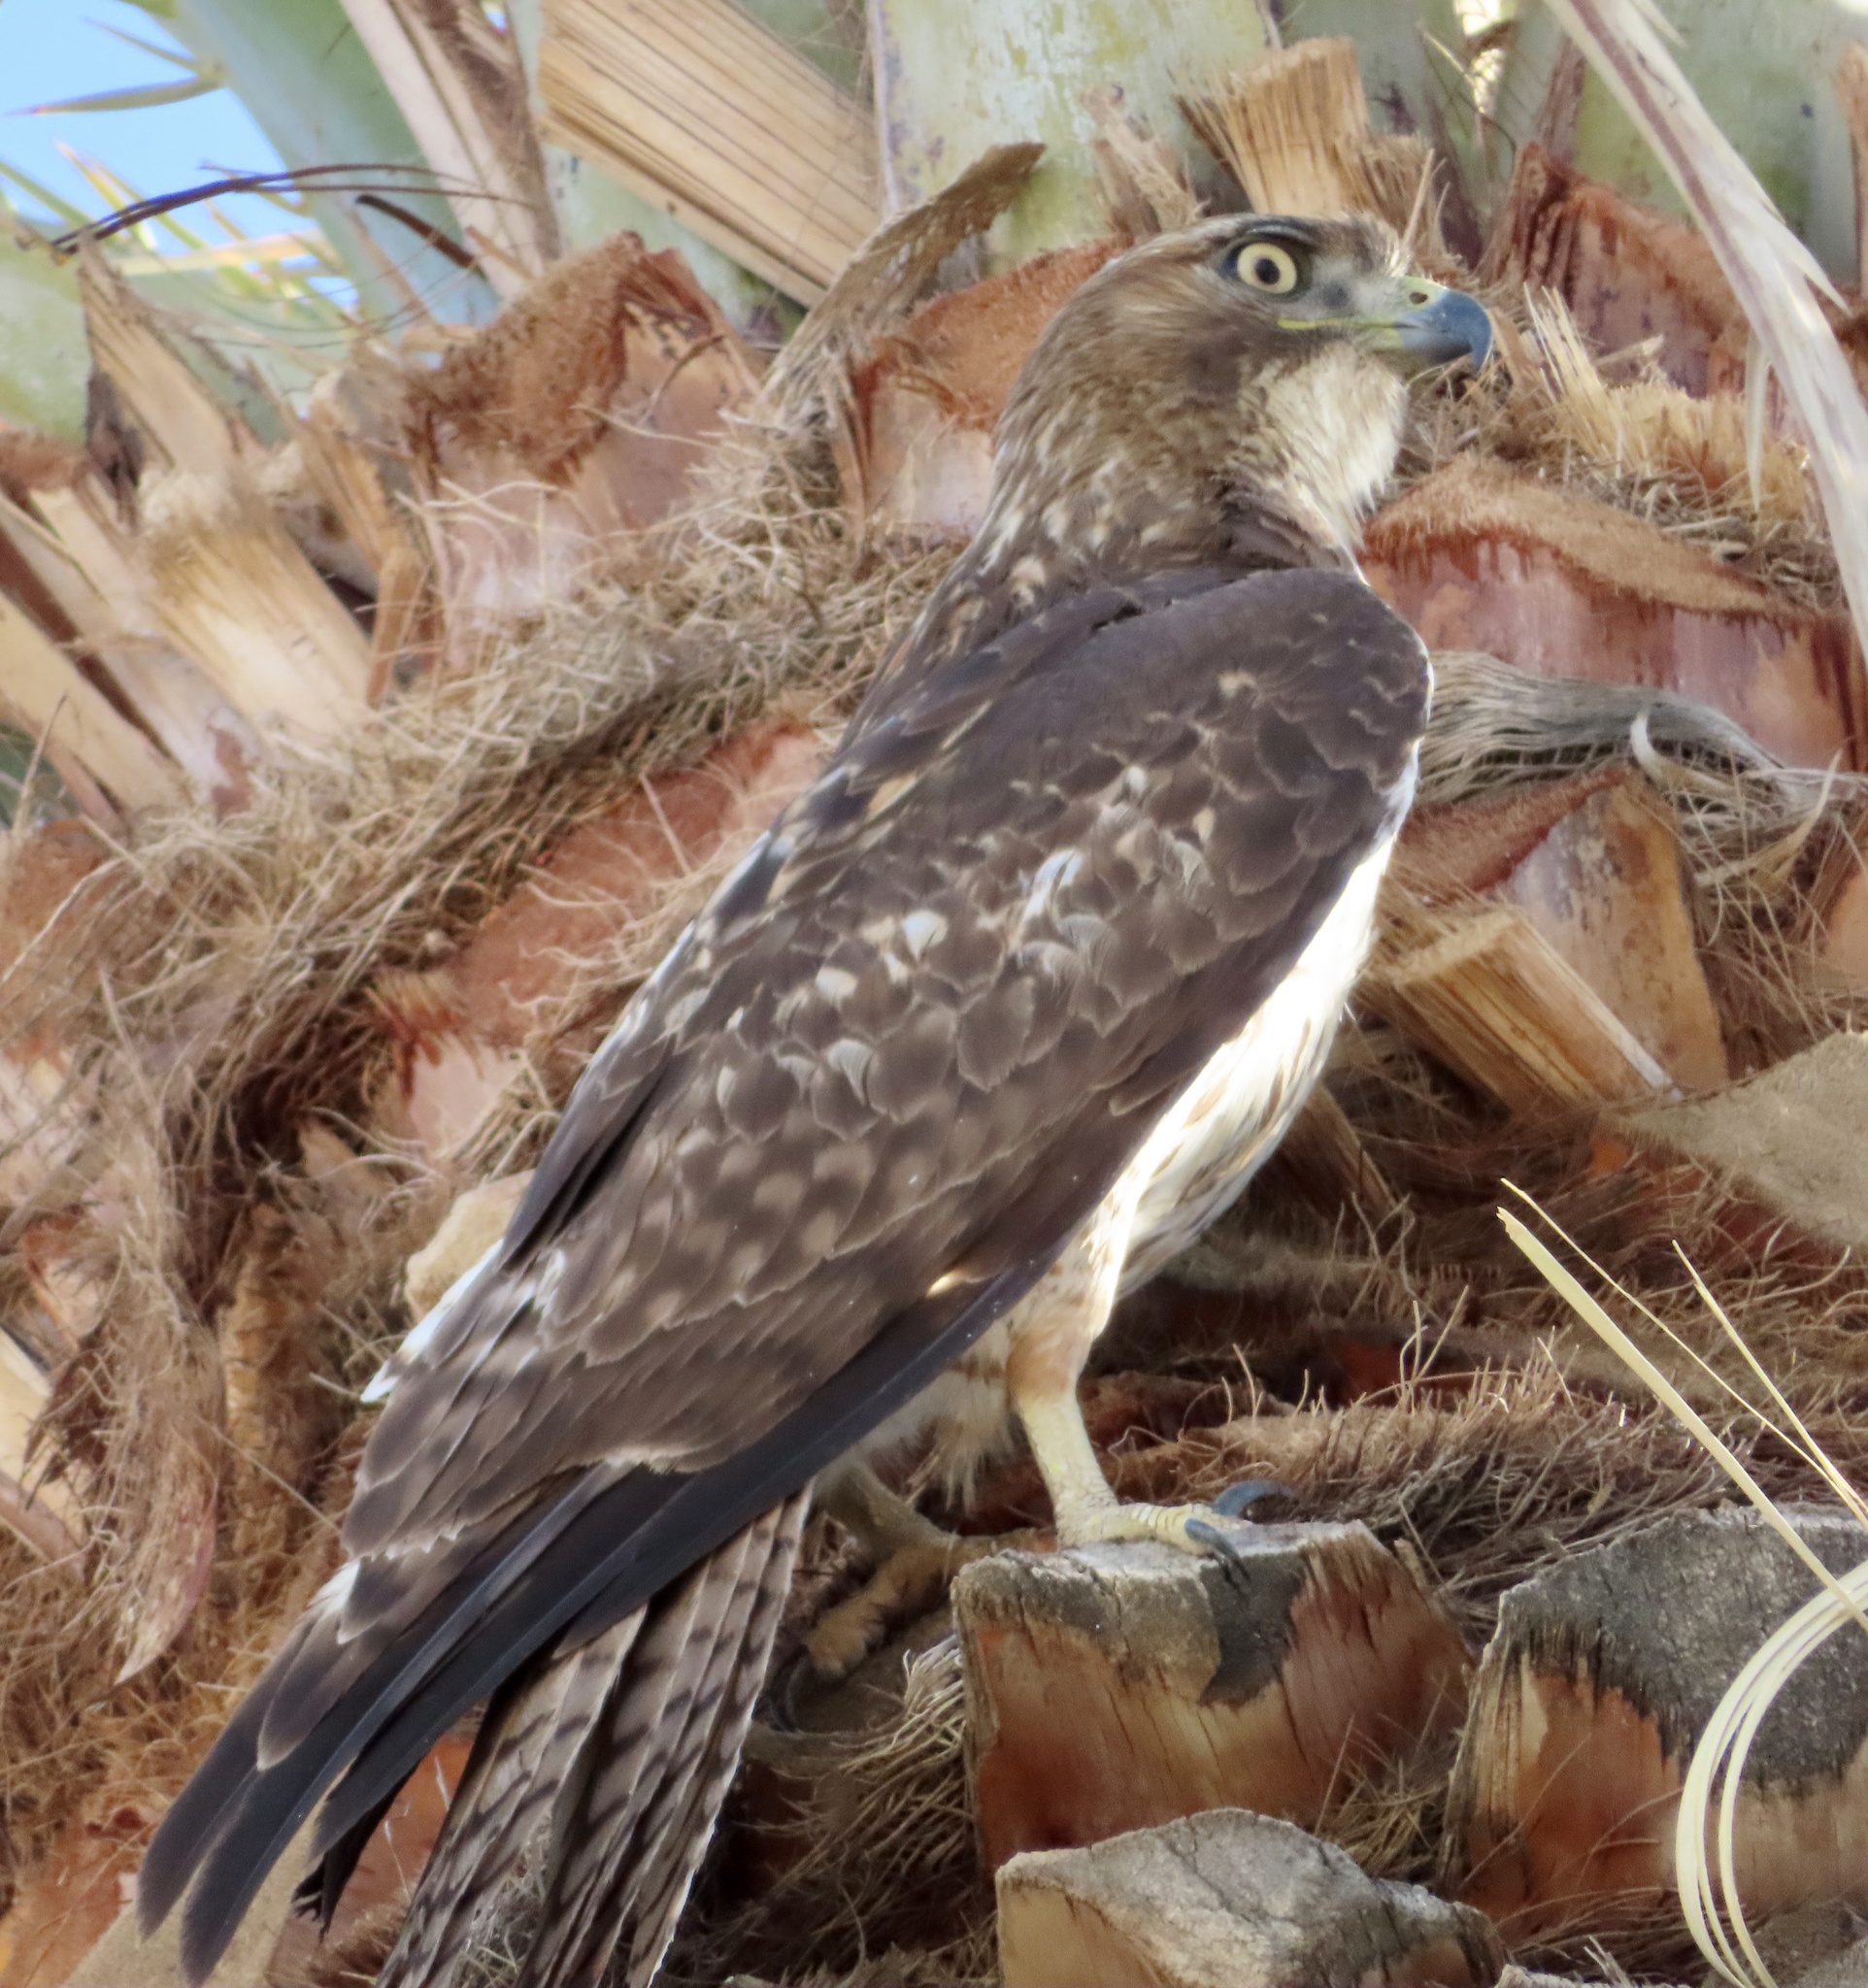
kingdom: Animalia
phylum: Chordata
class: Aves
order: Accipitriformes
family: Accipitridae
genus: Buteo
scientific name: Buteo jamaicensis
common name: Red-tailed hawk
